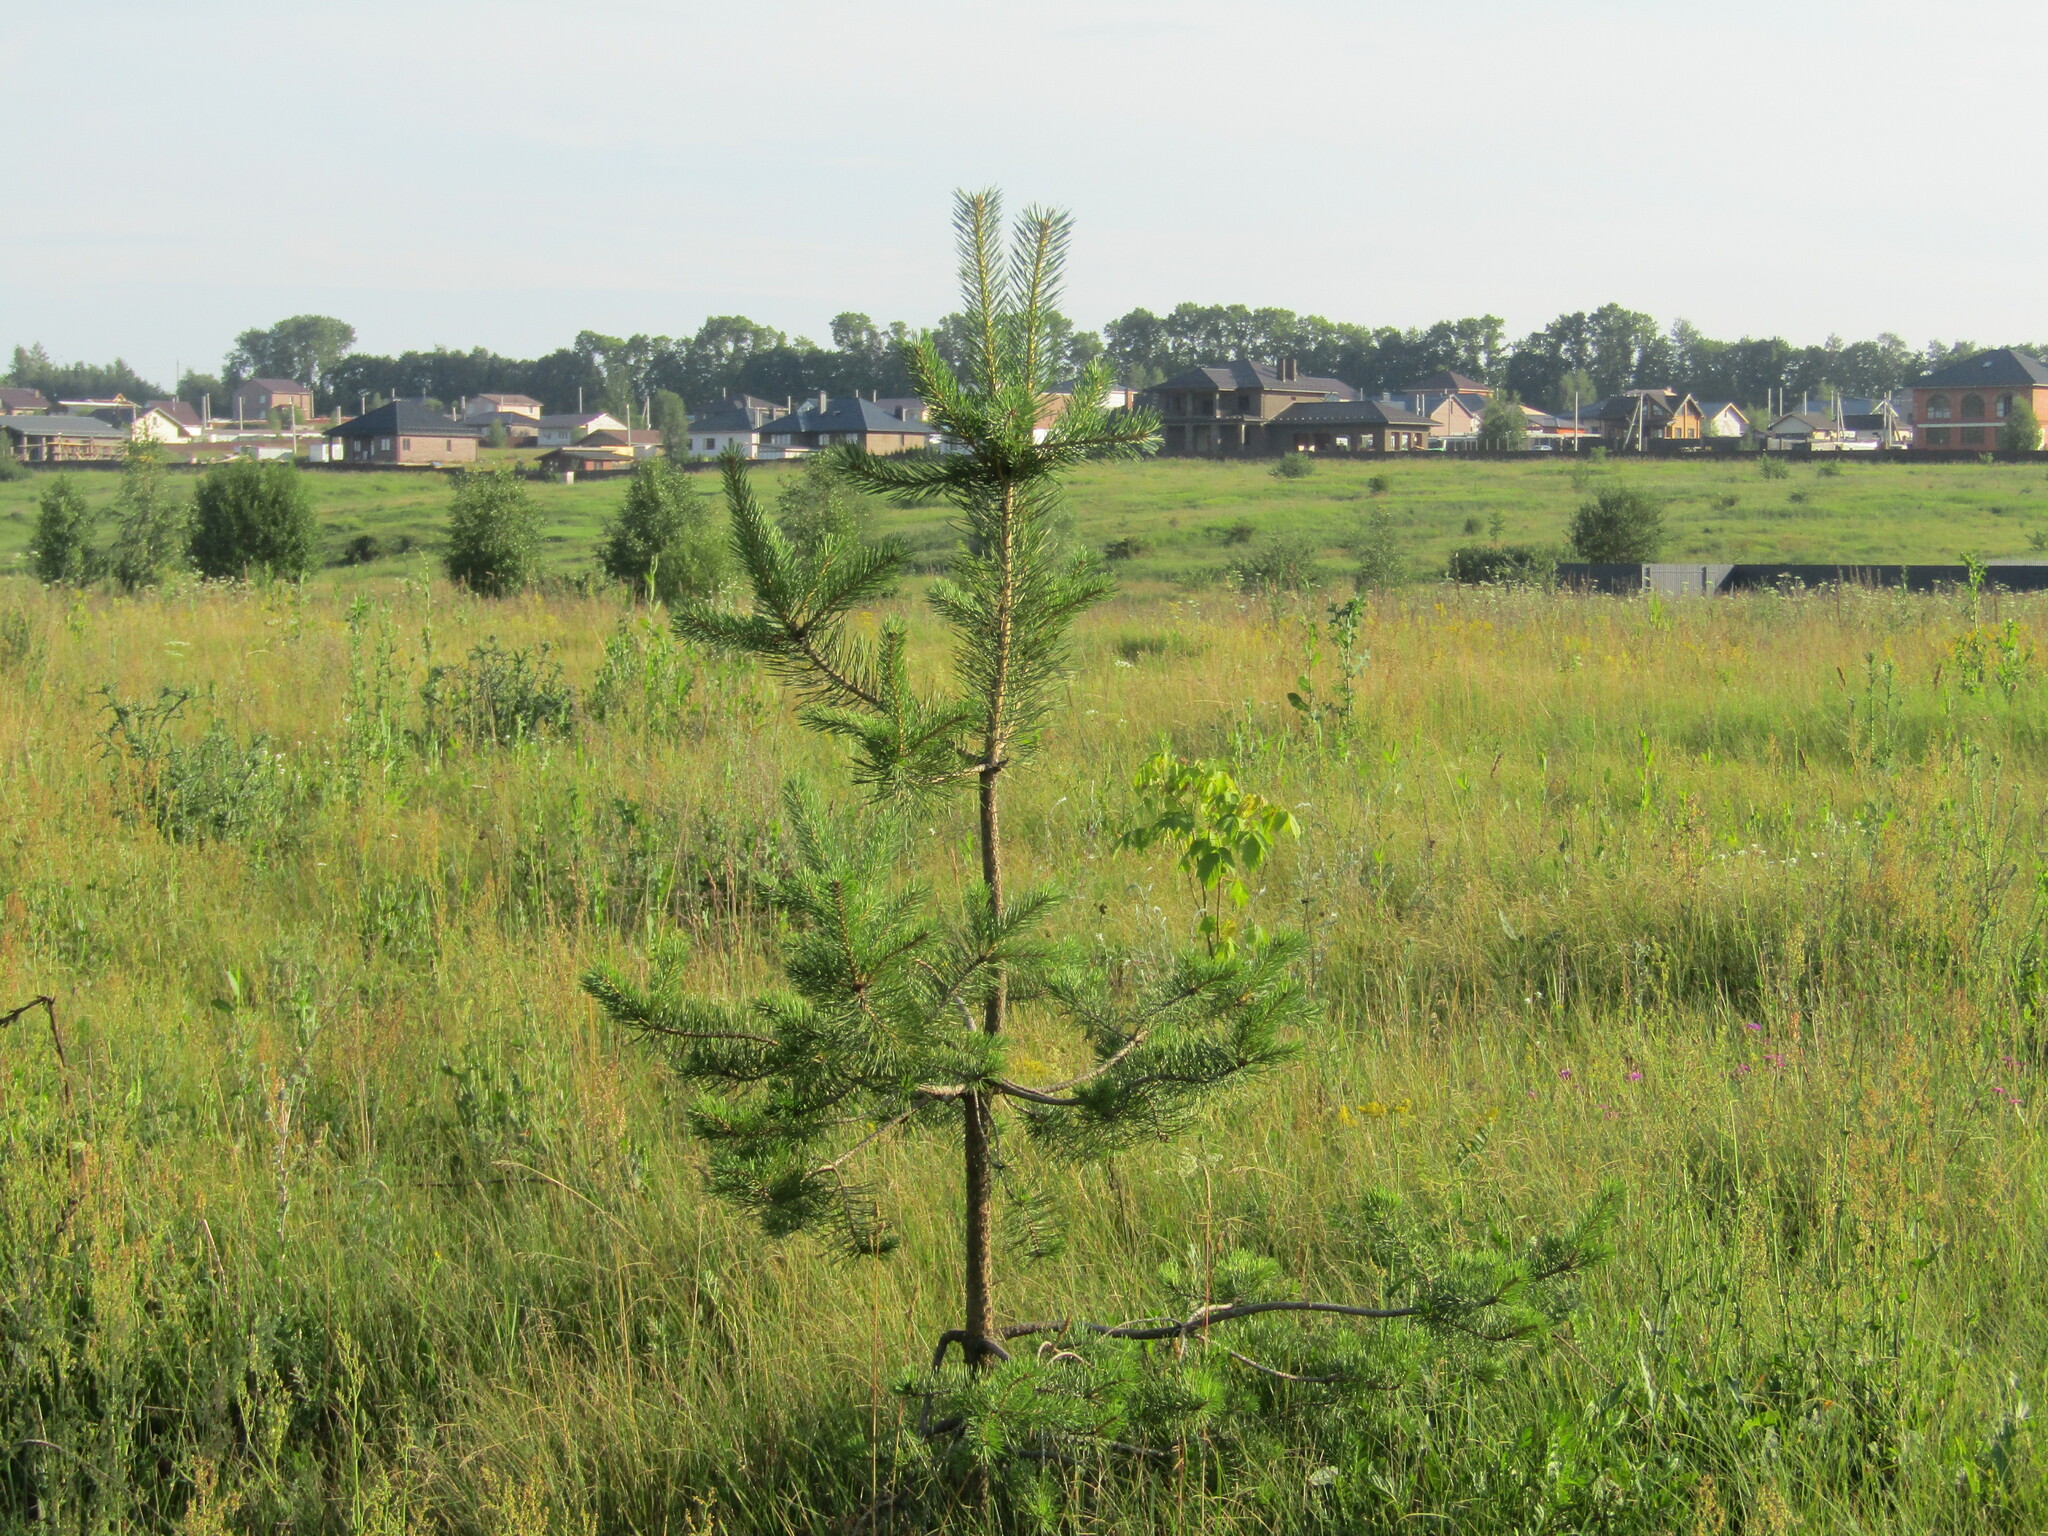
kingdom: Plantae
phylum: Tracheophyta
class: Pinopsida
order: Pinales
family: Pinaceae
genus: Pinus
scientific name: Pinus sylvestris
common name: Scots pine
